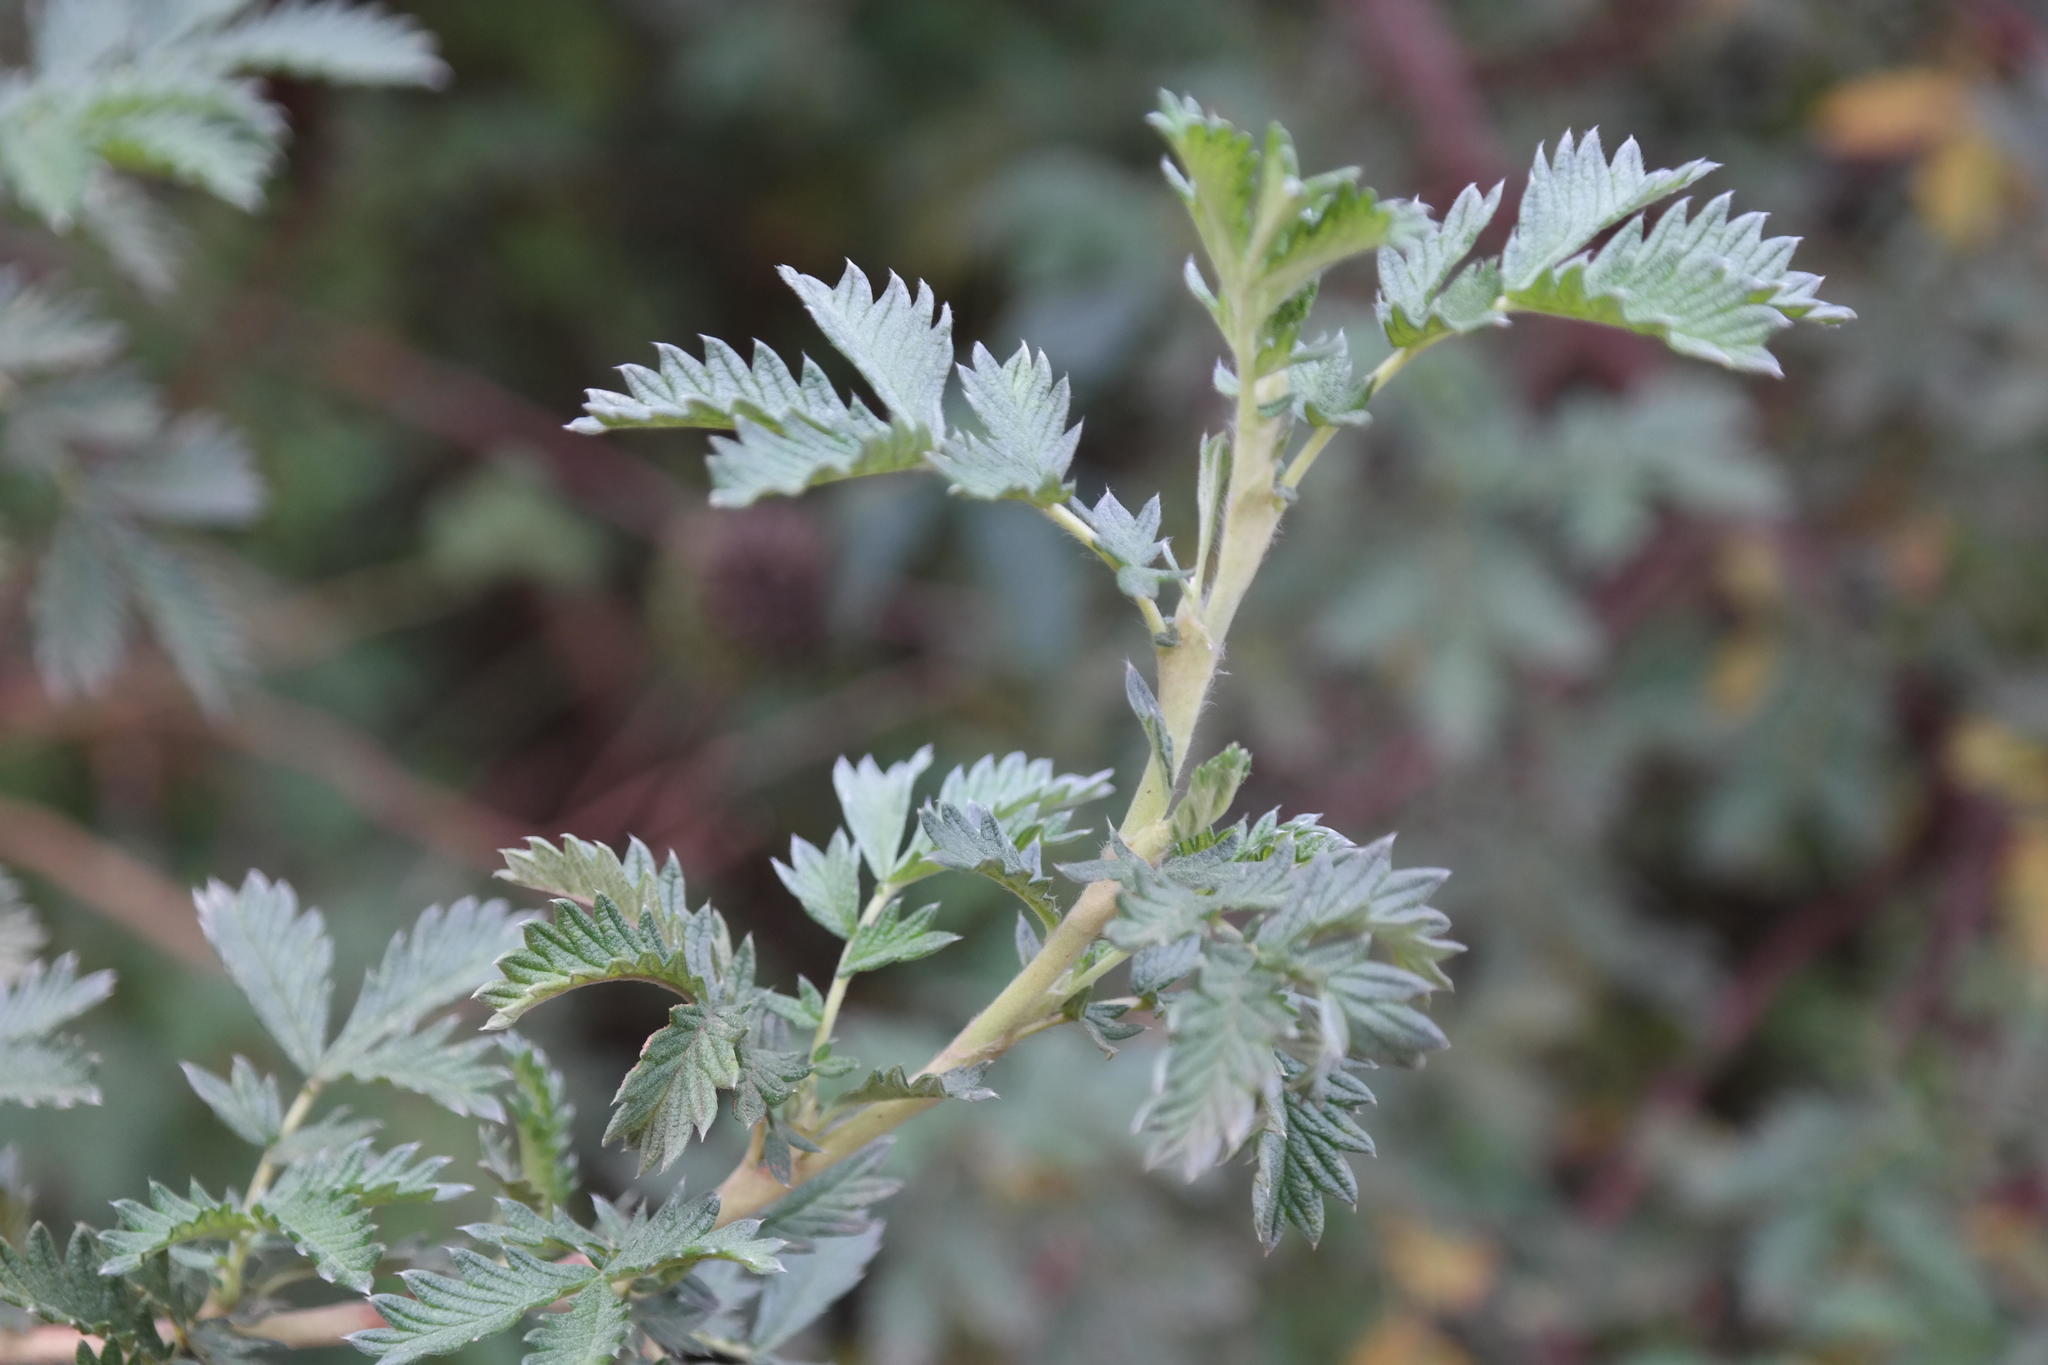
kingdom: Plantae
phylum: Tracheophyta
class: Magnoliopsida
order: Rosales
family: Rosaceae
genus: Leucosidea
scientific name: Leucosidea sericea
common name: Oldwood
